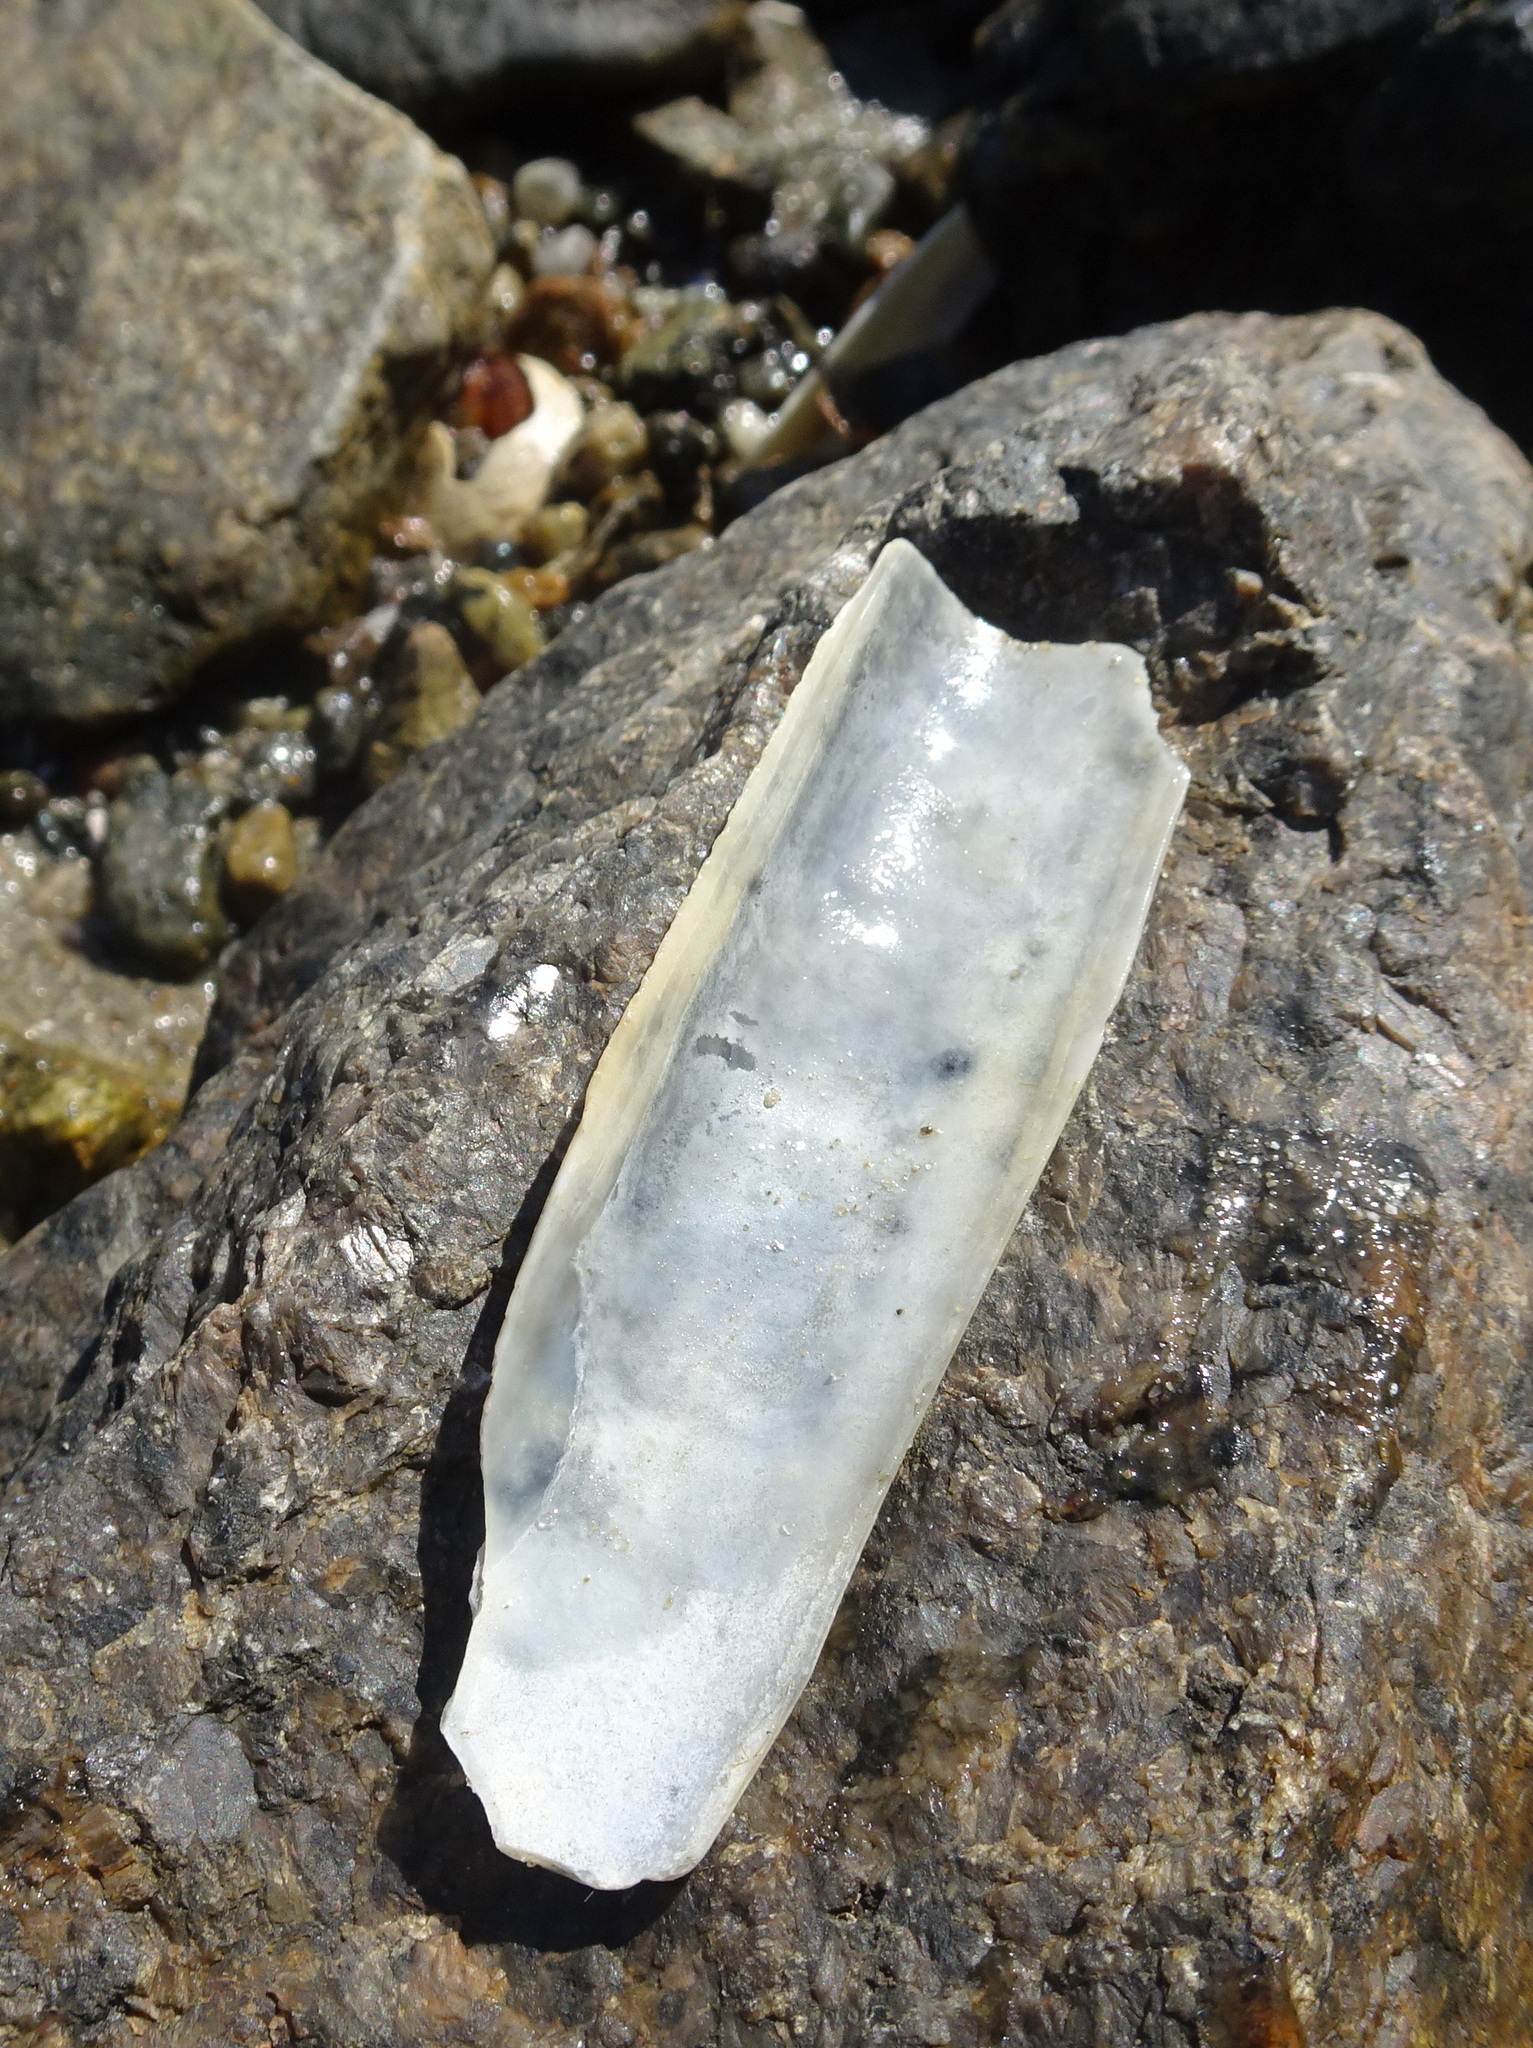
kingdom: Animalia
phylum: Mollusca
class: Bivalvia
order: Adapedonta
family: Pharidae
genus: Ensis
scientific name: Ensis leei
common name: American jack knife clam
